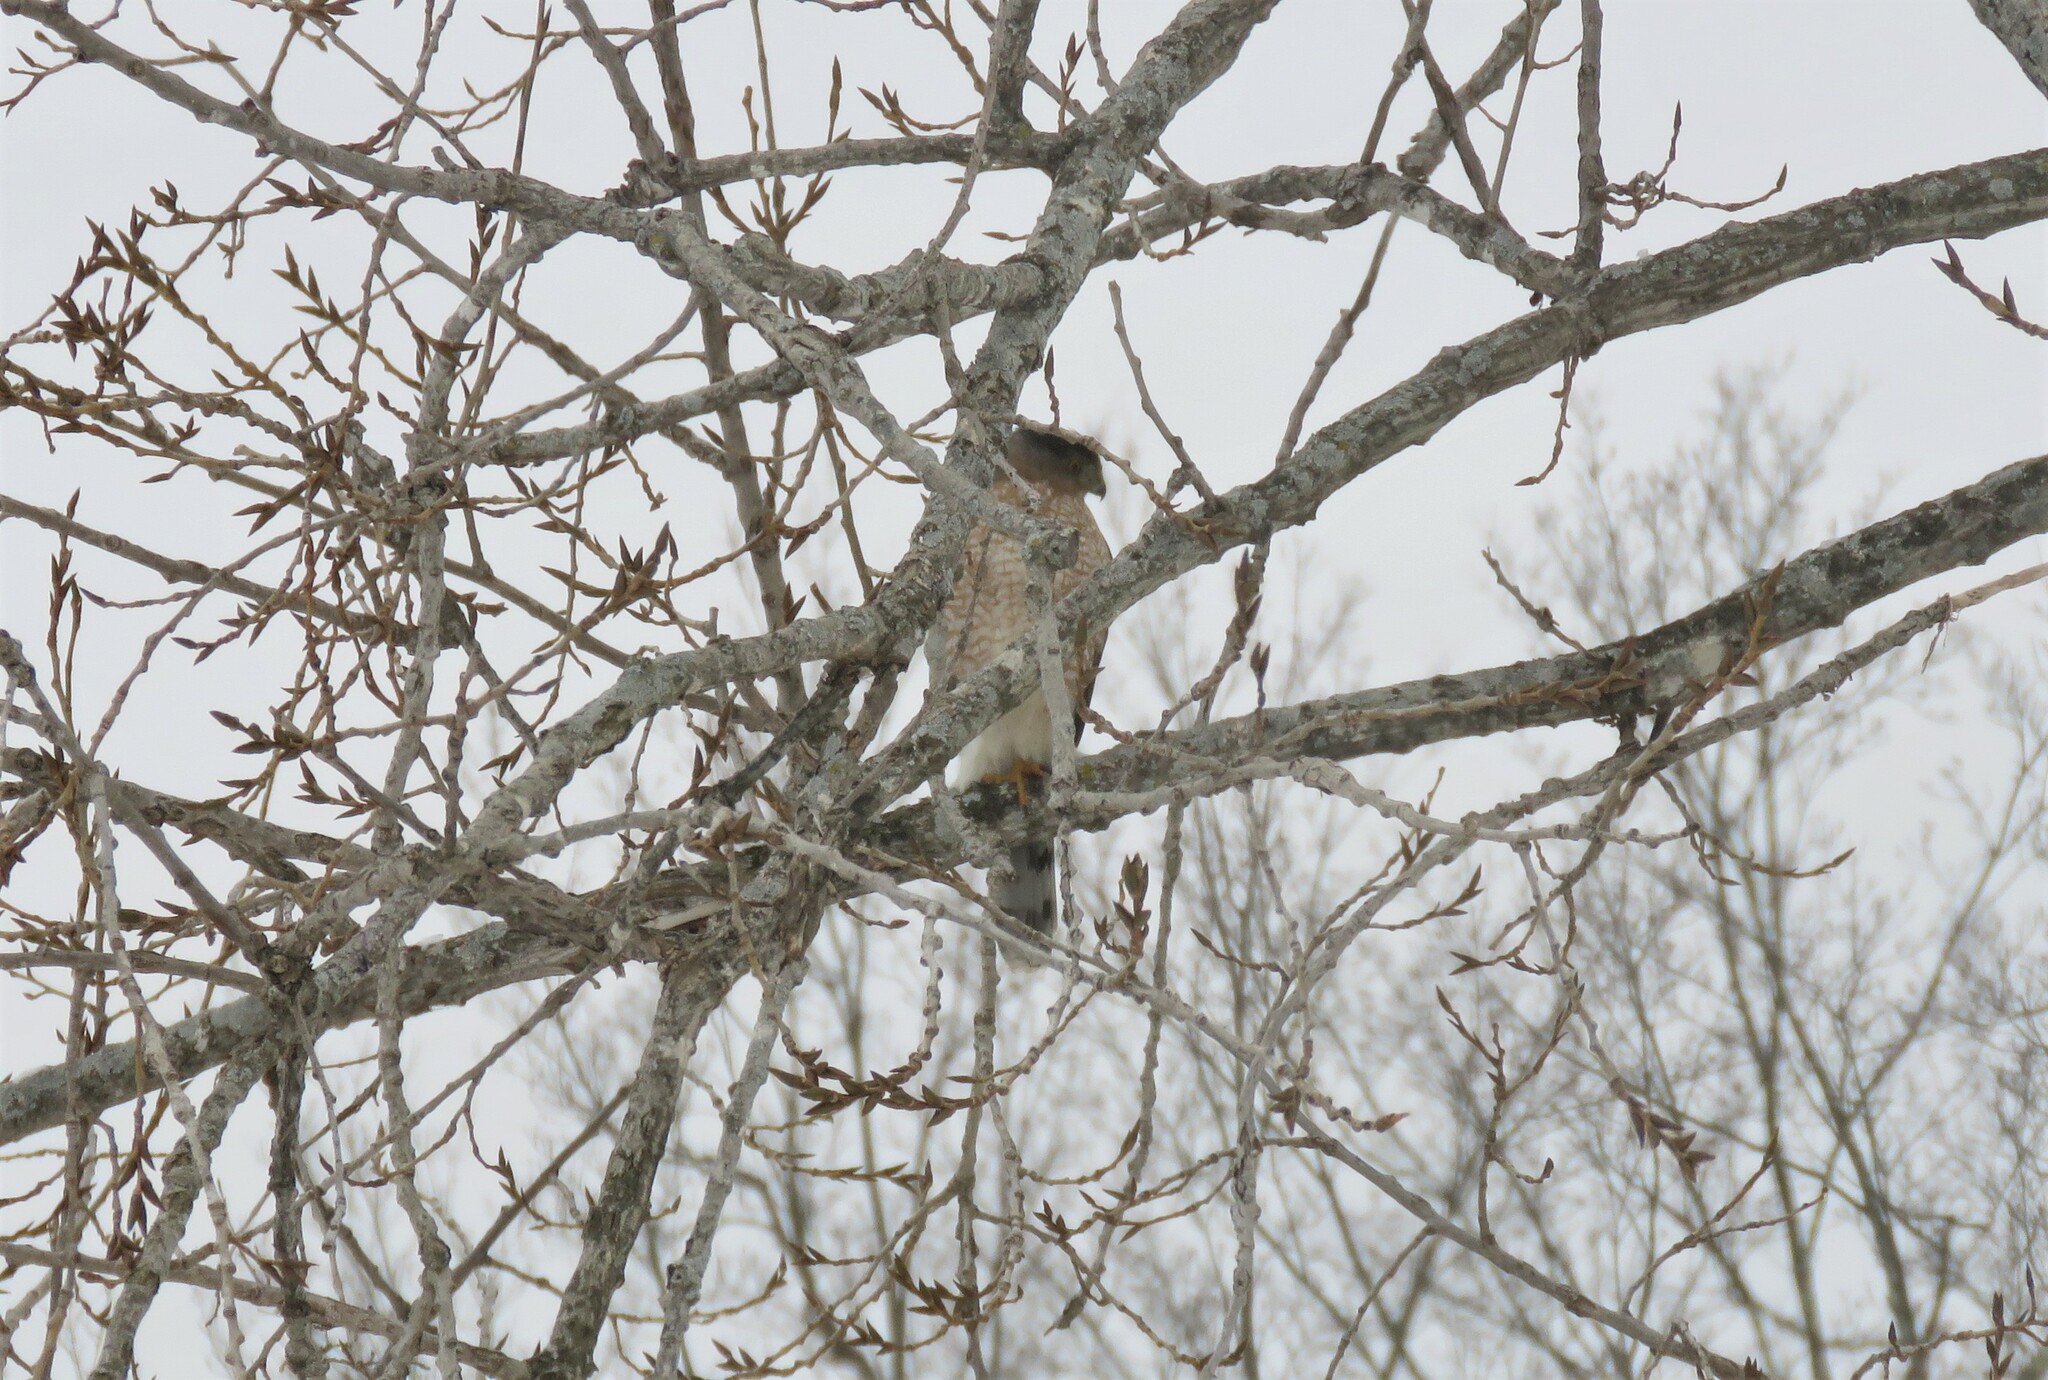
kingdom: Animalia
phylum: Chordata
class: Aves
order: Accipitriformes
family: Accipitridae
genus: Accipiter
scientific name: Accipiter cooperii
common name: Cooper's hawk
